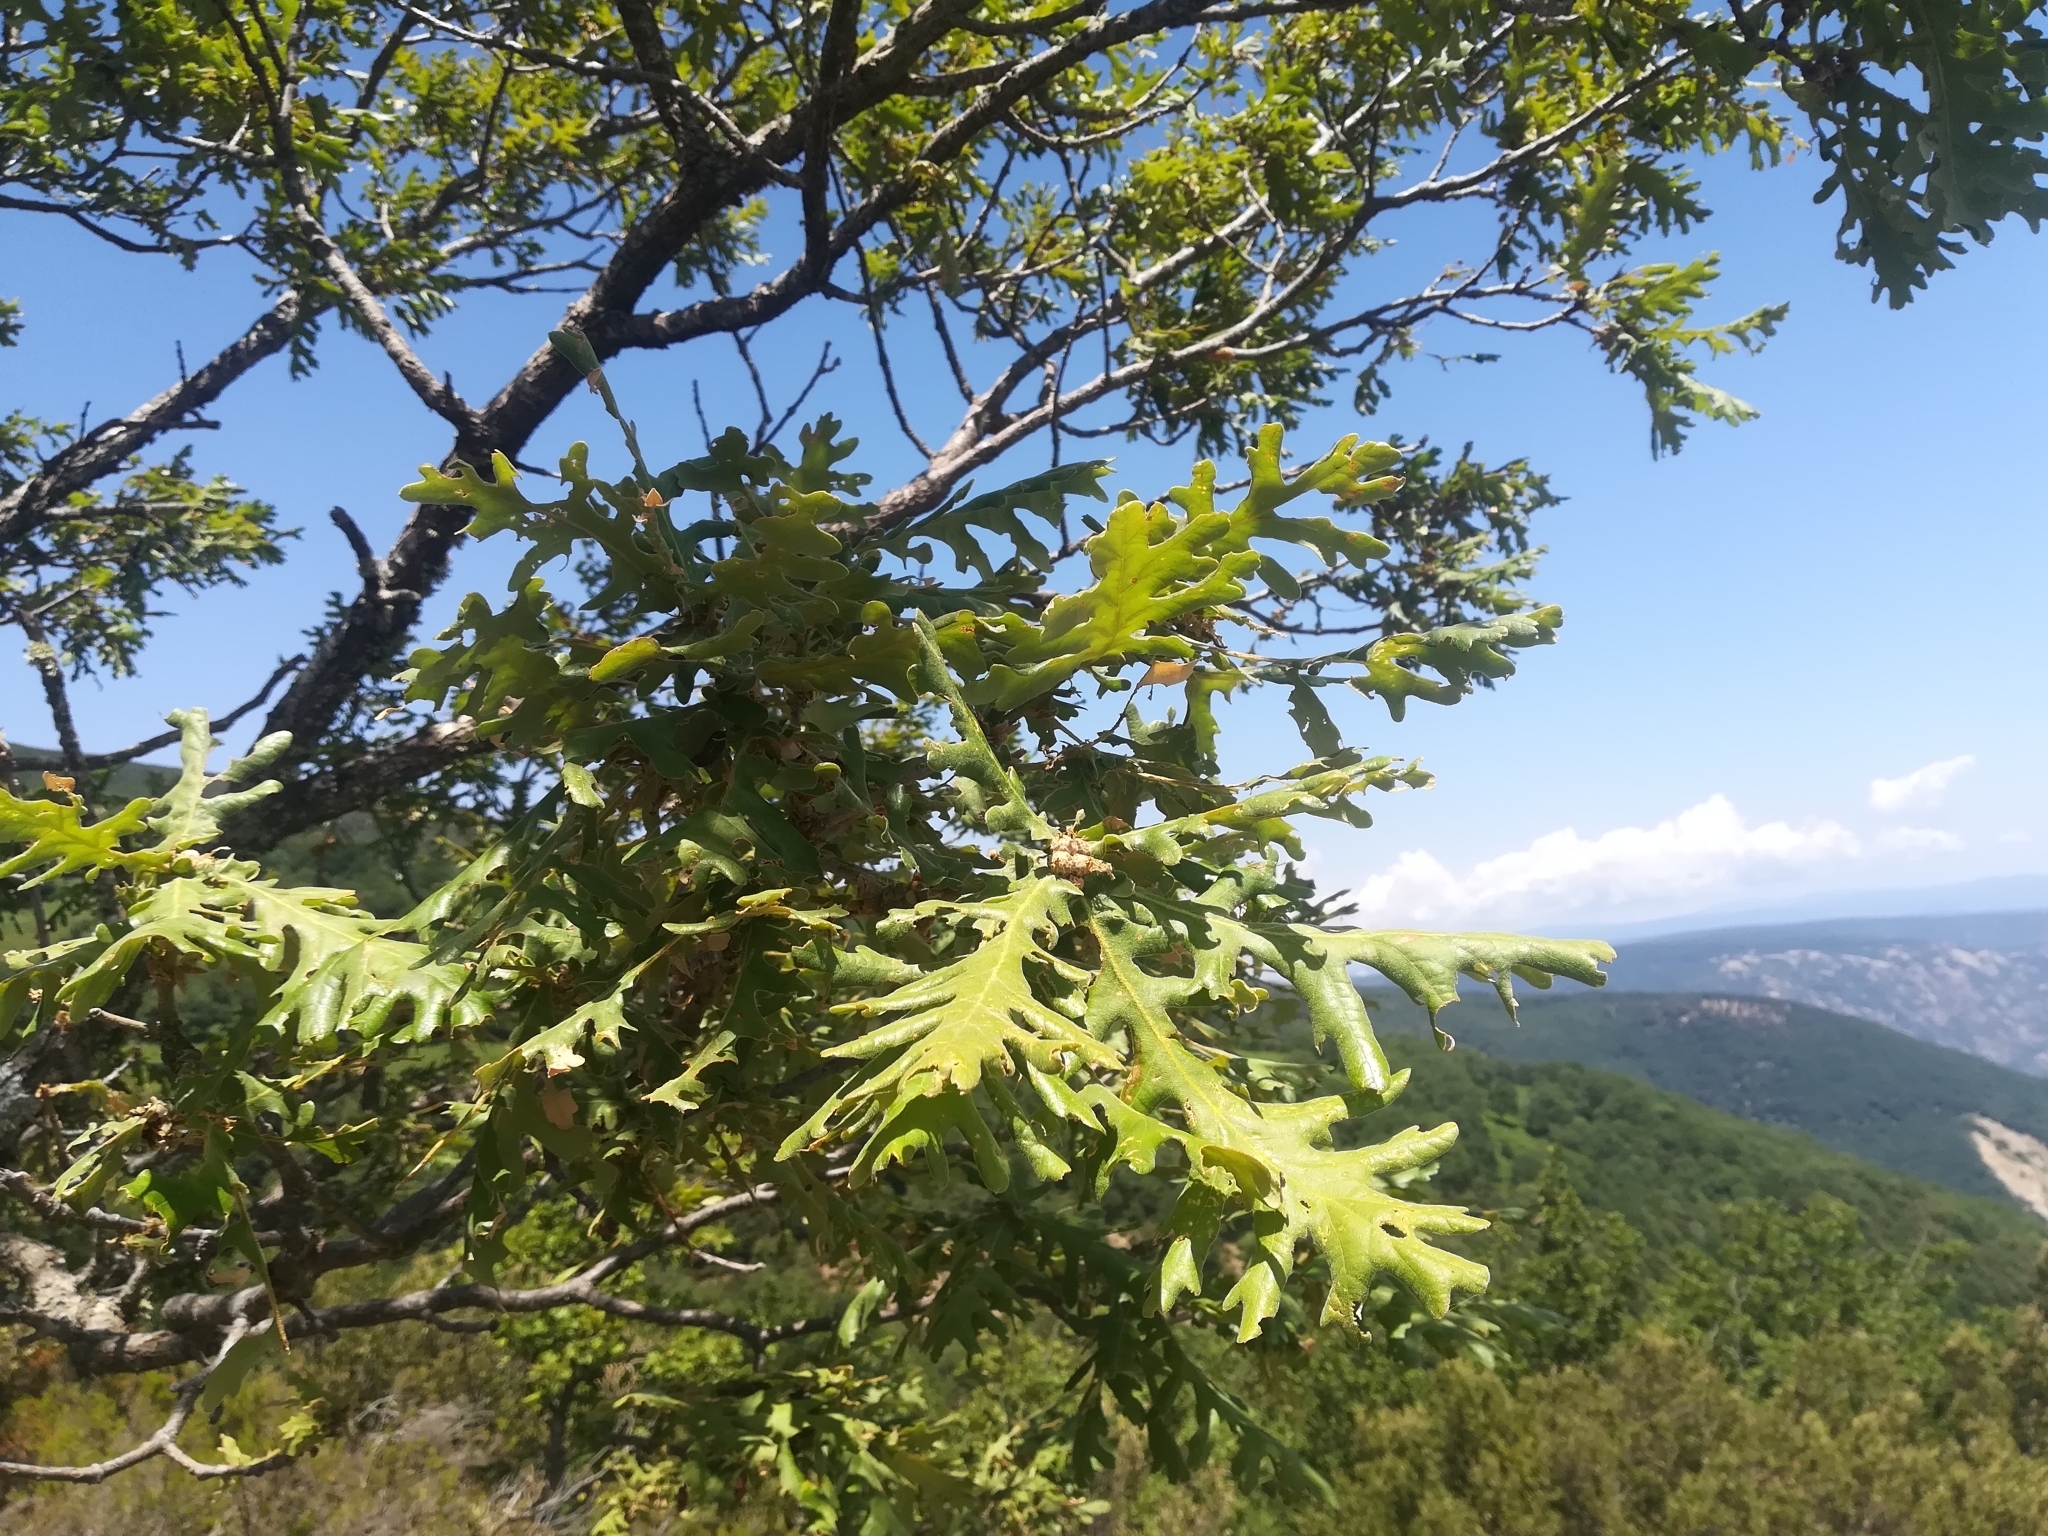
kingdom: Plantae
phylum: Tracheophyta
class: Magnoliopsida
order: Fagales
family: Fagaceae
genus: Quercus
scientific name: Quercus conferta
